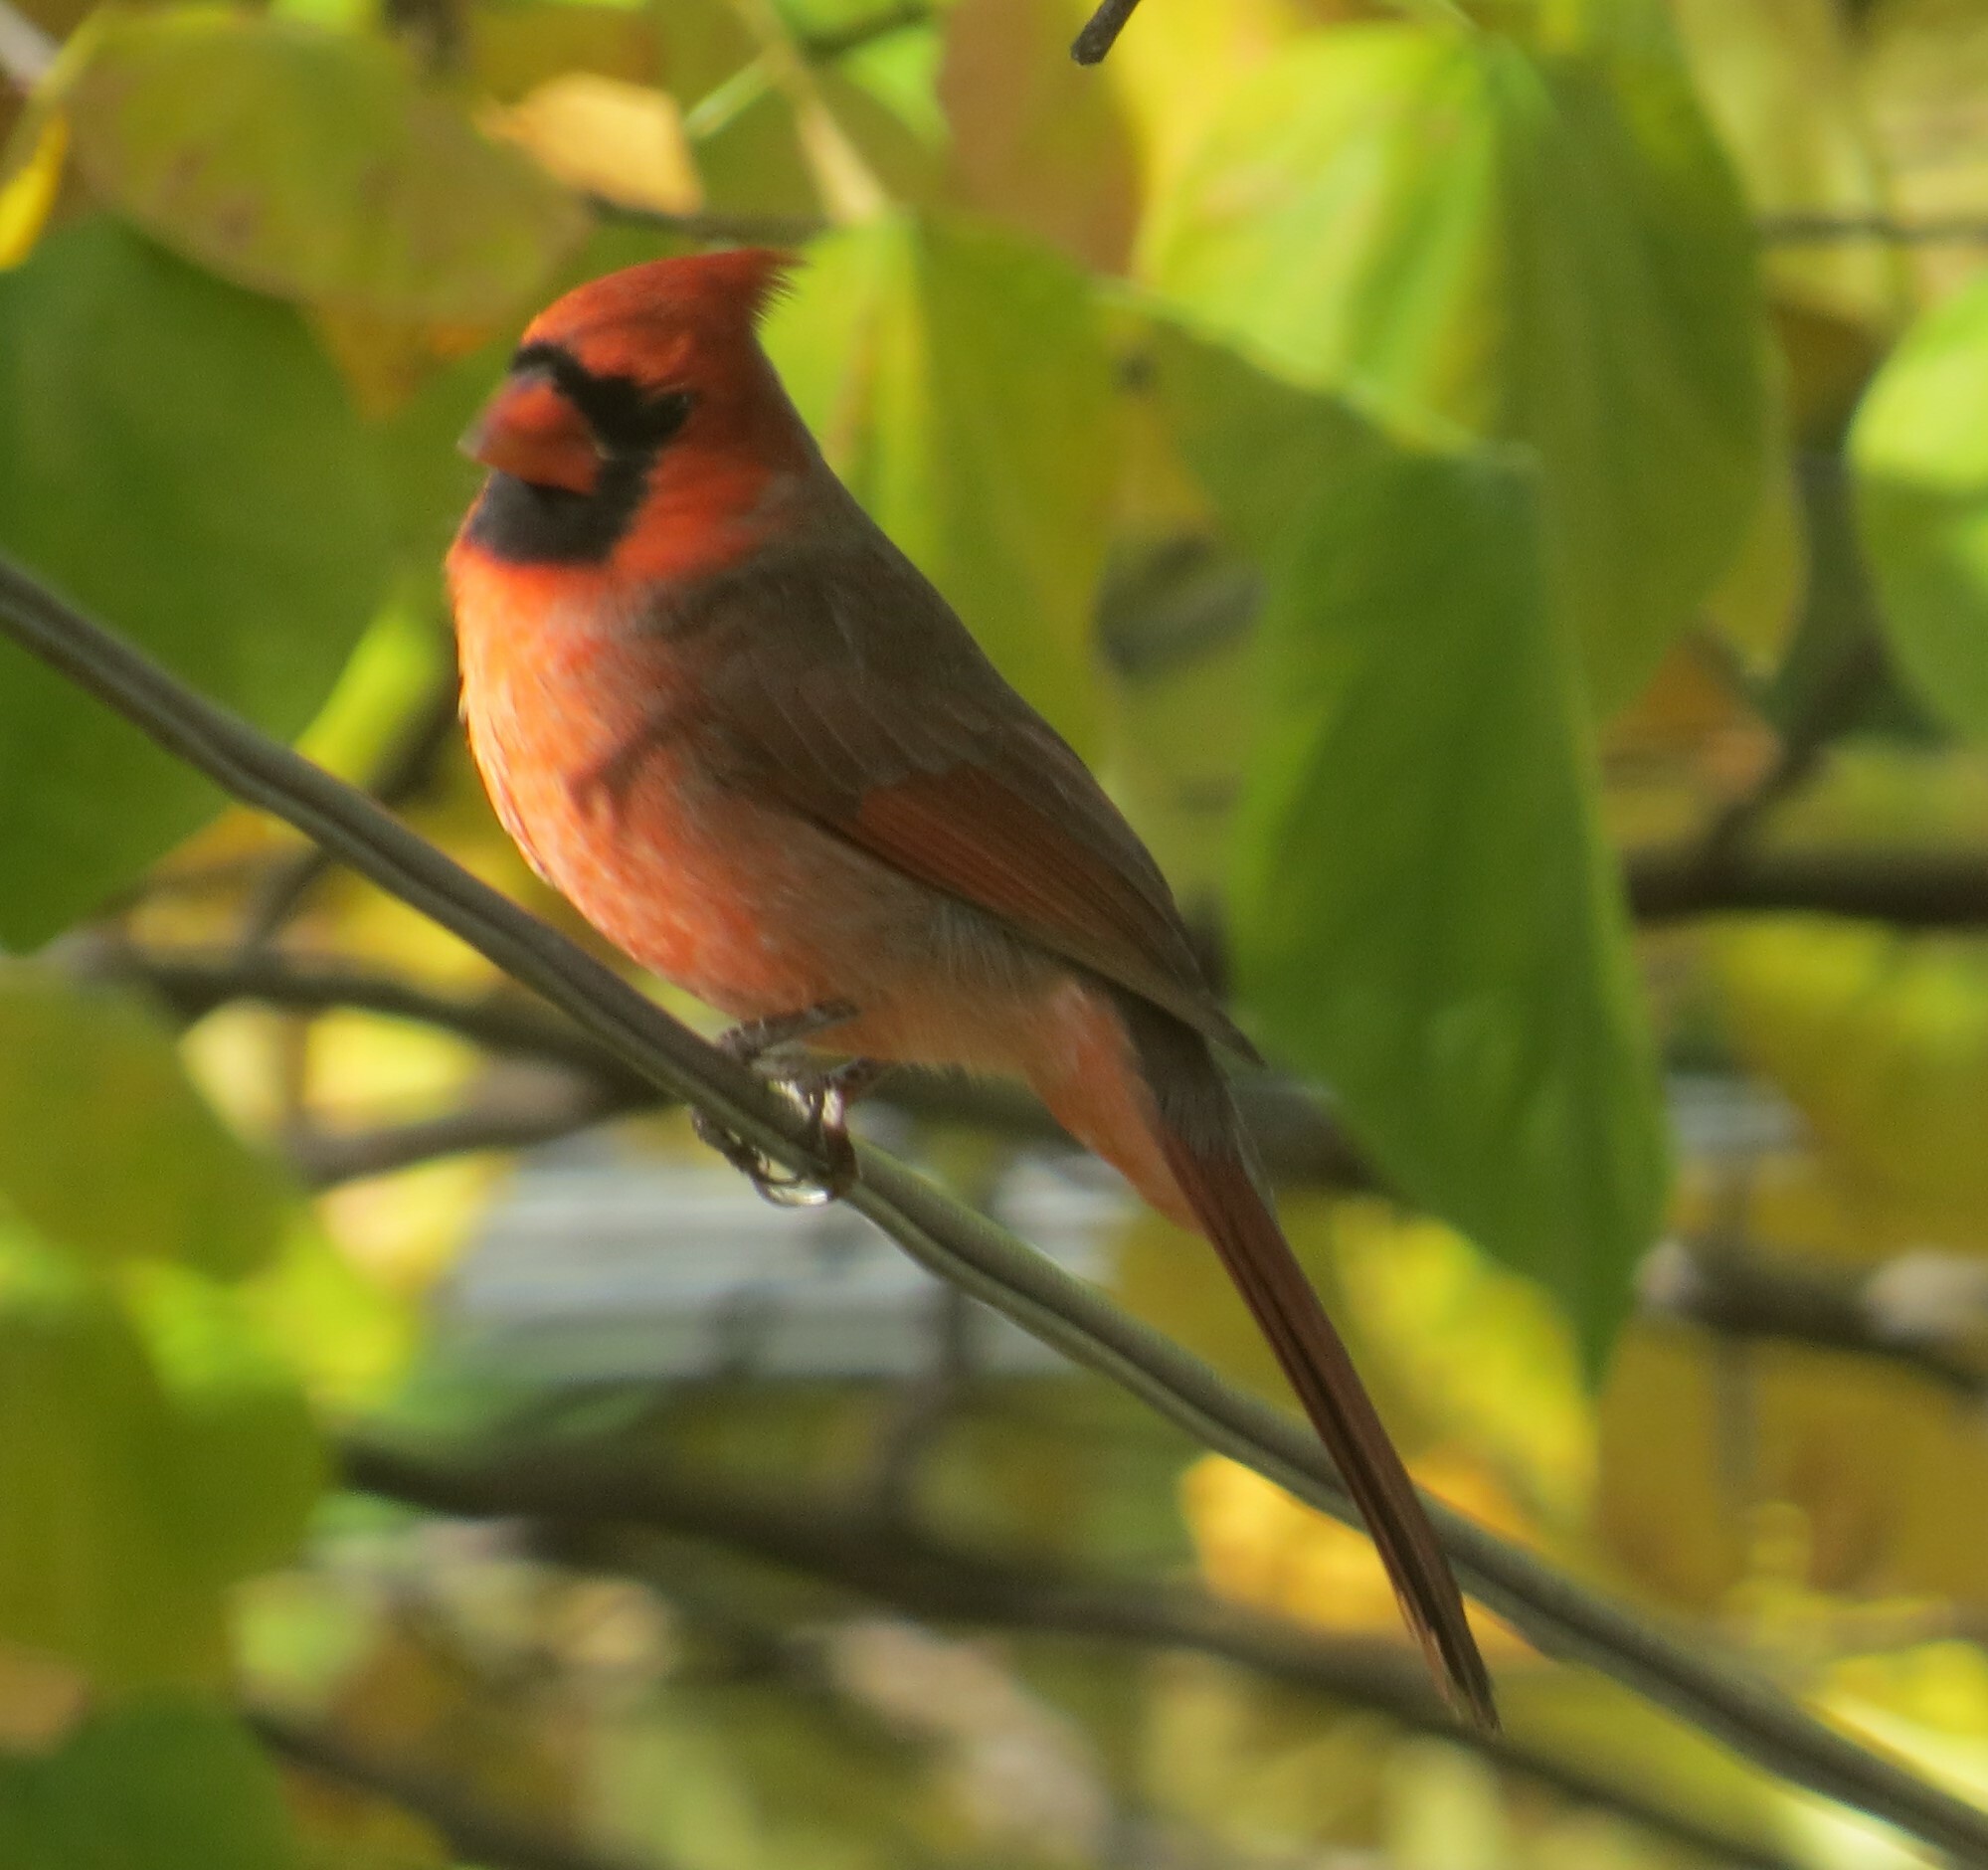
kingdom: Animalia
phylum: Chordata
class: Aves
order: Passeriformes
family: Cardinalidae
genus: Cardinalis
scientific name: Cardinalis cardinalis
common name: Northern cardinal
